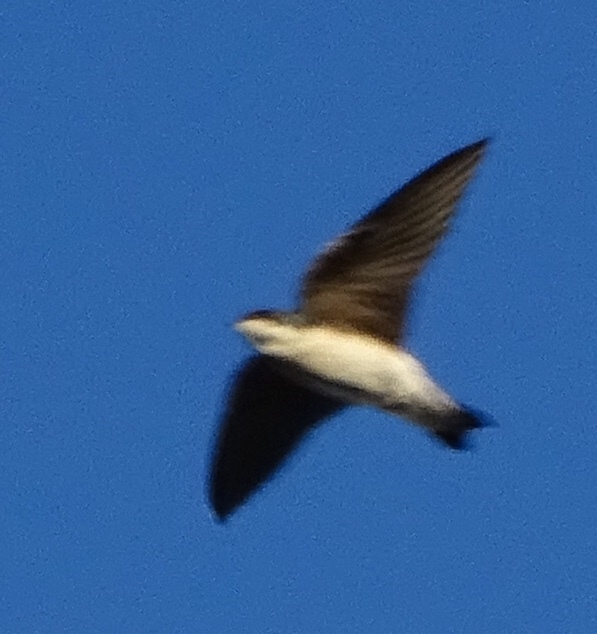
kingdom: Animalia
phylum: Chordata
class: Aves
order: Passeriformes
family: Hirundinidae
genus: Tachycineta
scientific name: Tachycineta bicolor
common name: Tree swallow
